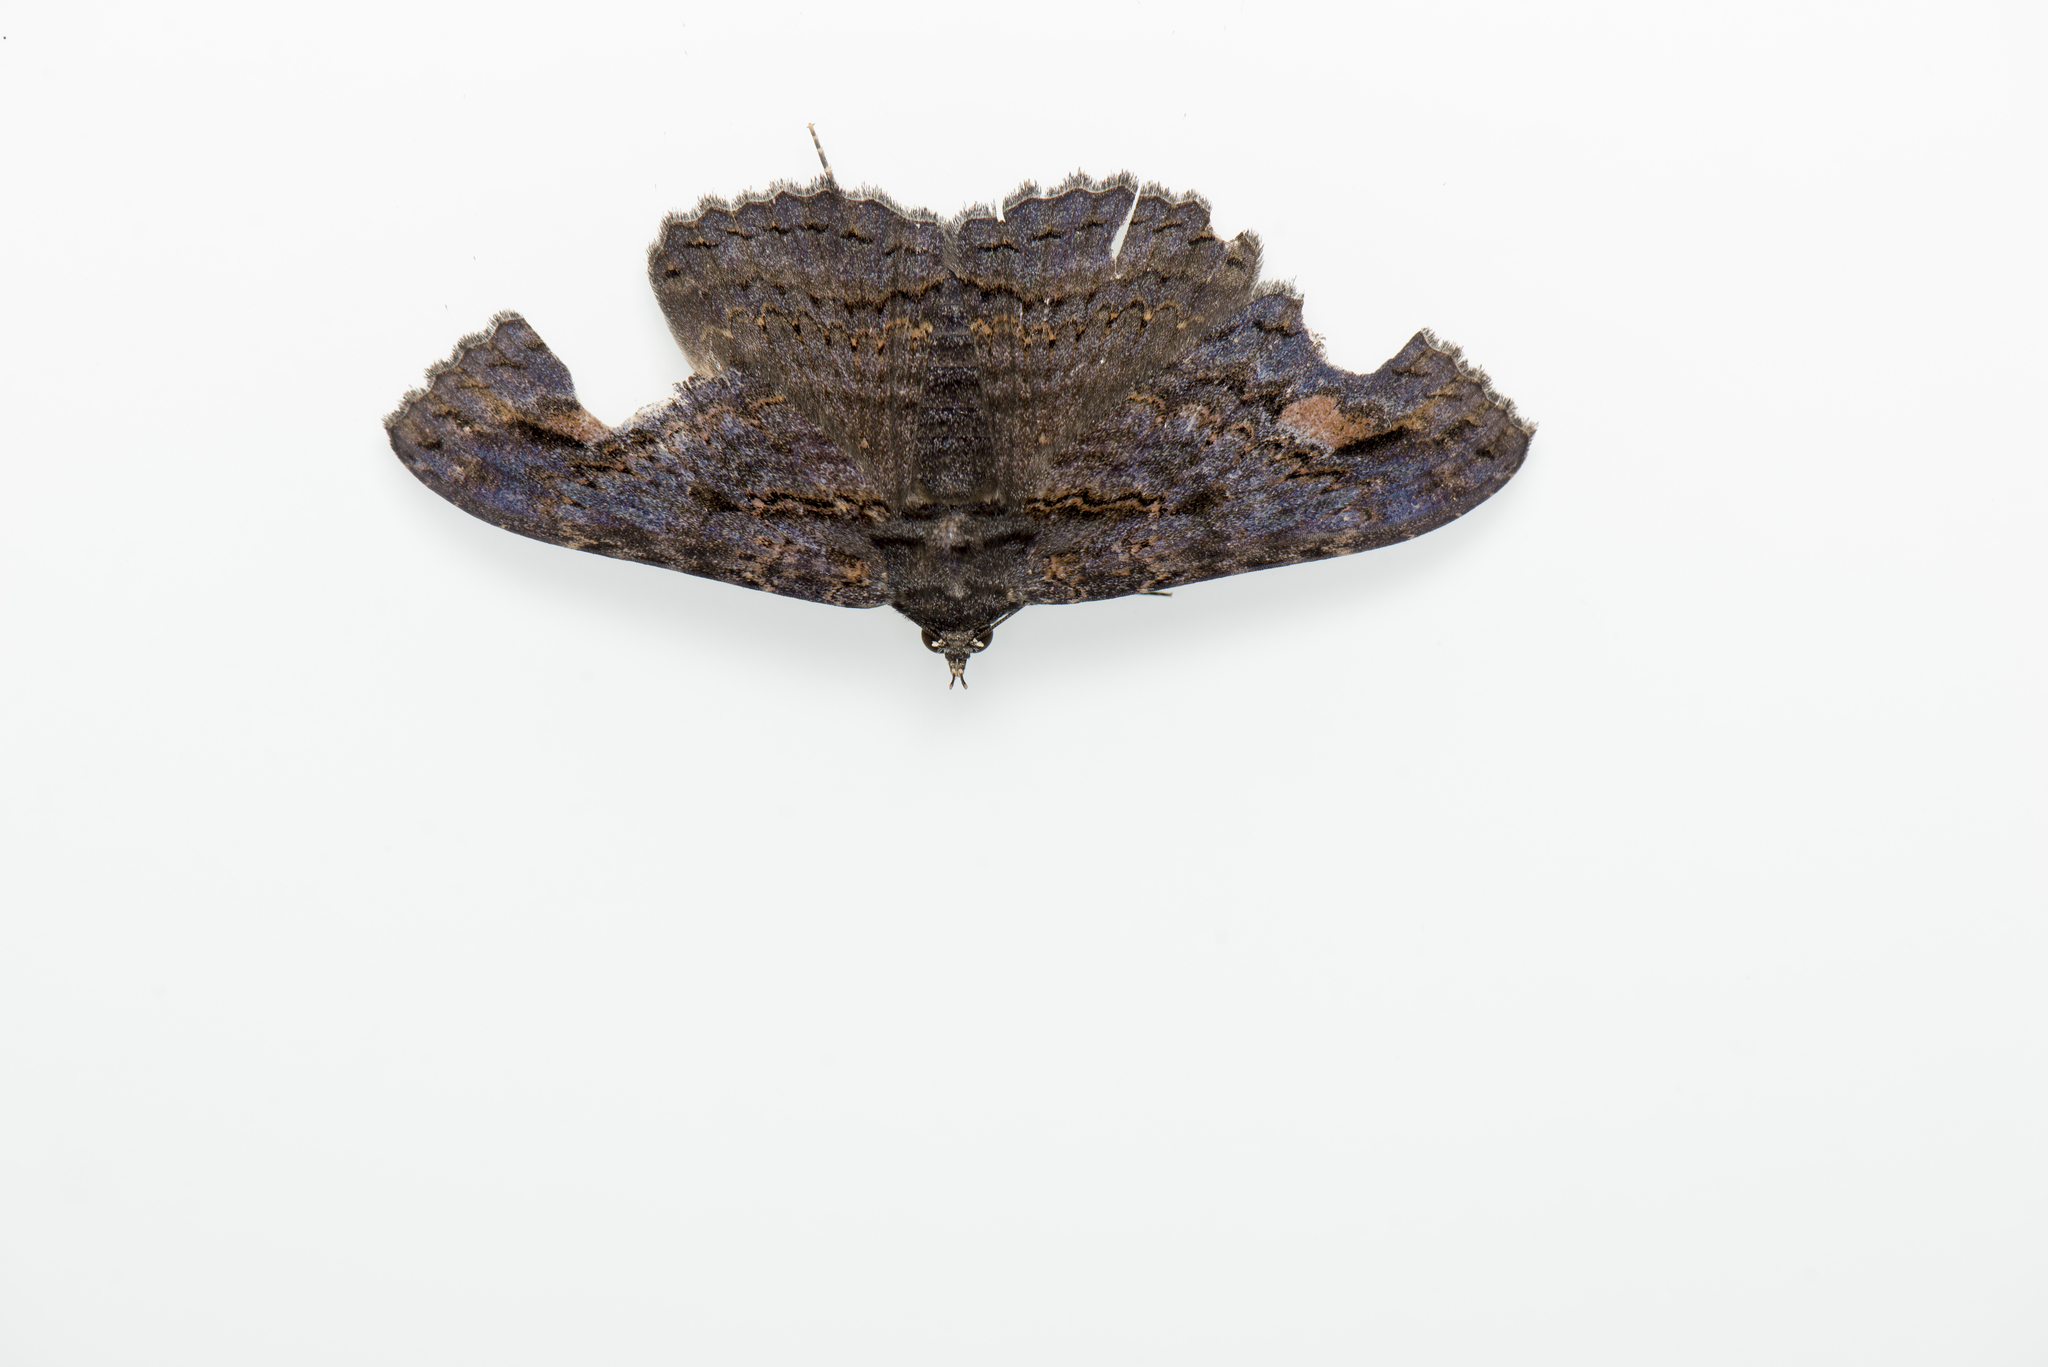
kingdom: Animalia
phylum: Arthropoda
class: Insecta
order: Lepidoptera
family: Erebidae
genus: Anisoneura
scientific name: Anisoneura salebrosa
